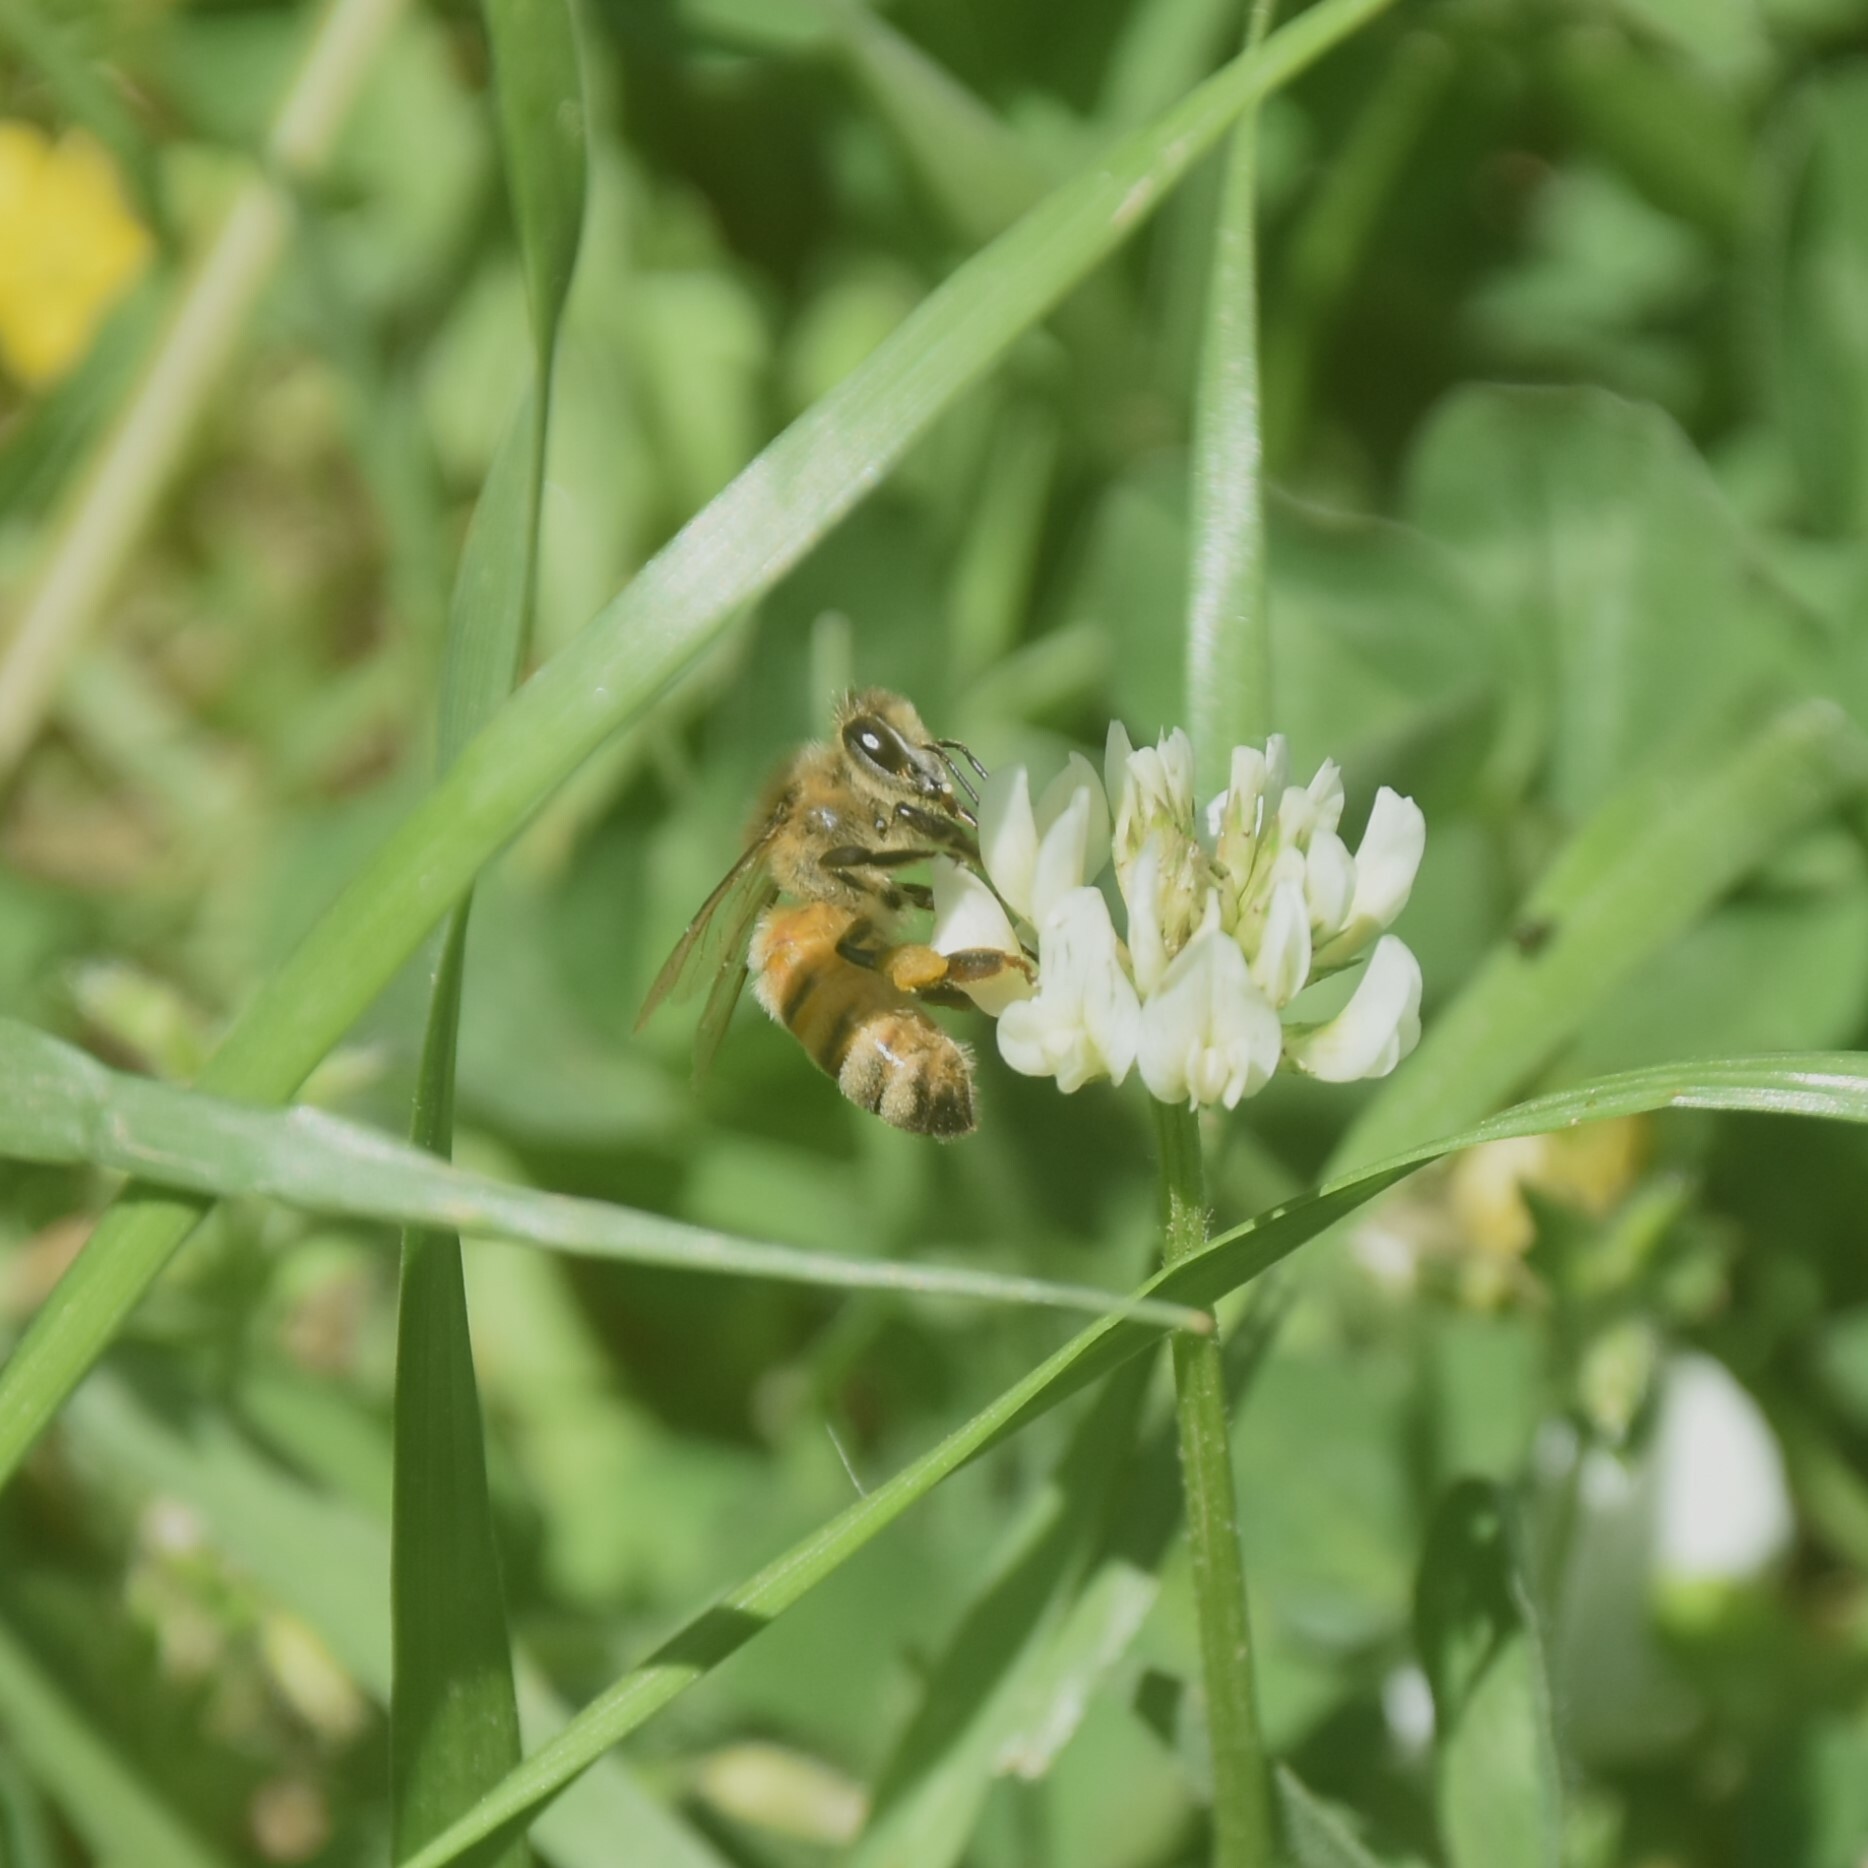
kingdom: Animalia
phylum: Arthropoda
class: Insecta
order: Hymenoptera
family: Apidae
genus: Apis
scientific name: Apis mellifera
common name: Honey bee
